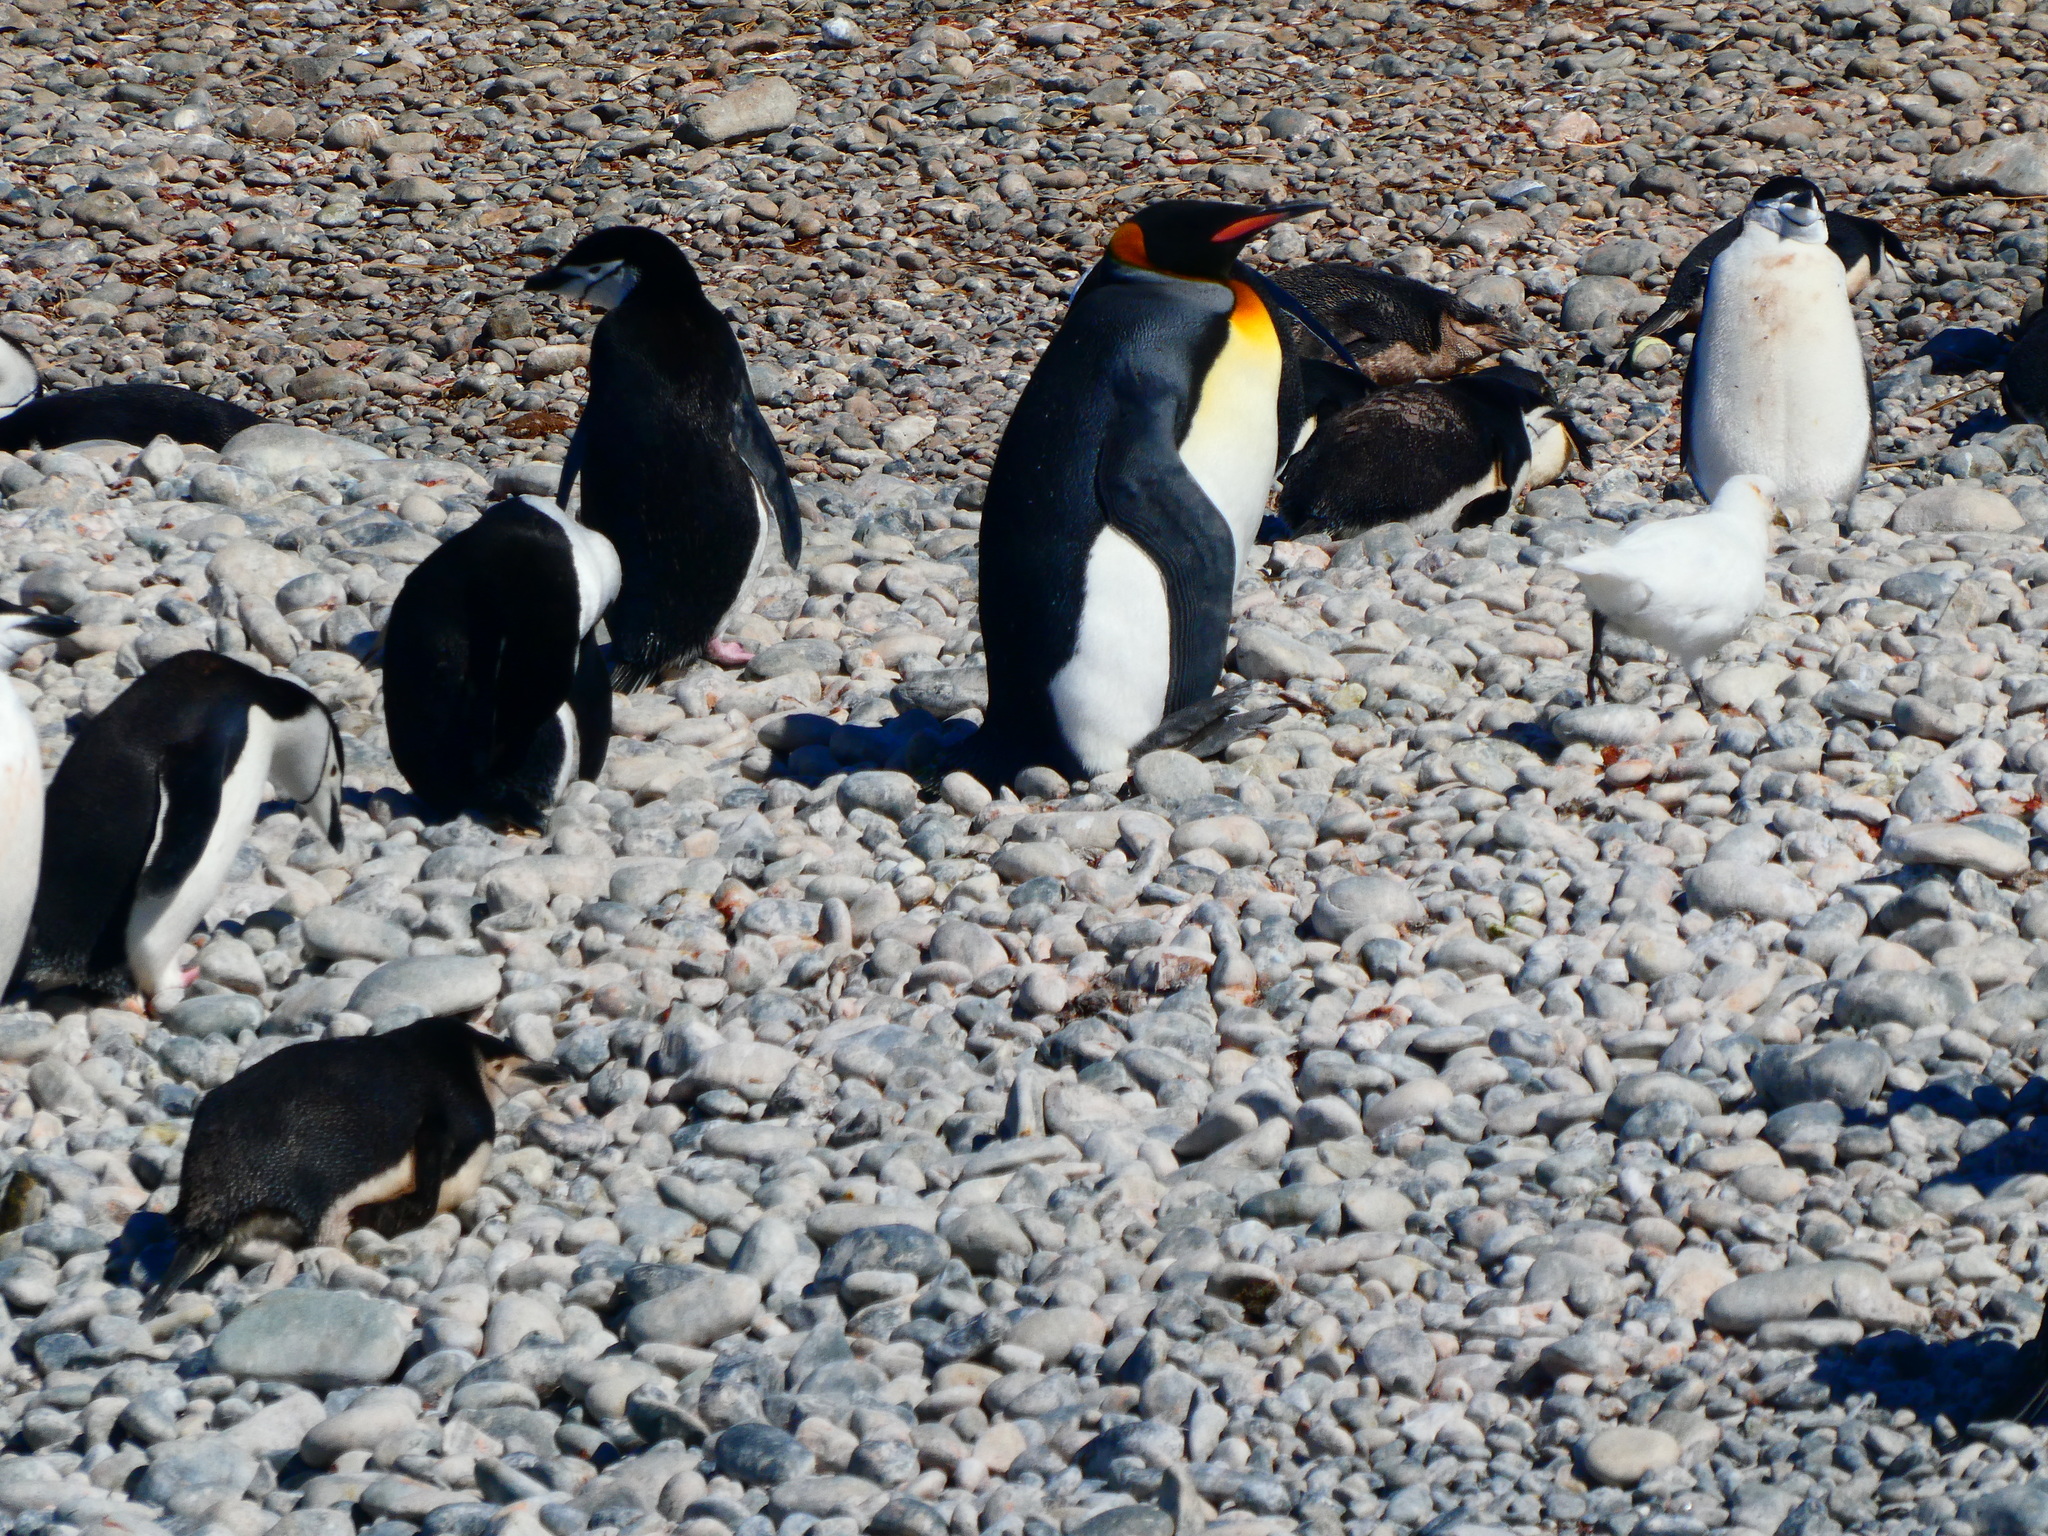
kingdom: Animalia
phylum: Chordata
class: Aves
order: Sphenisciformes
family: Spheniscidae
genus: Aptenodytes
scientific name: Aptenodytes patagonicus
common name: King penguin
